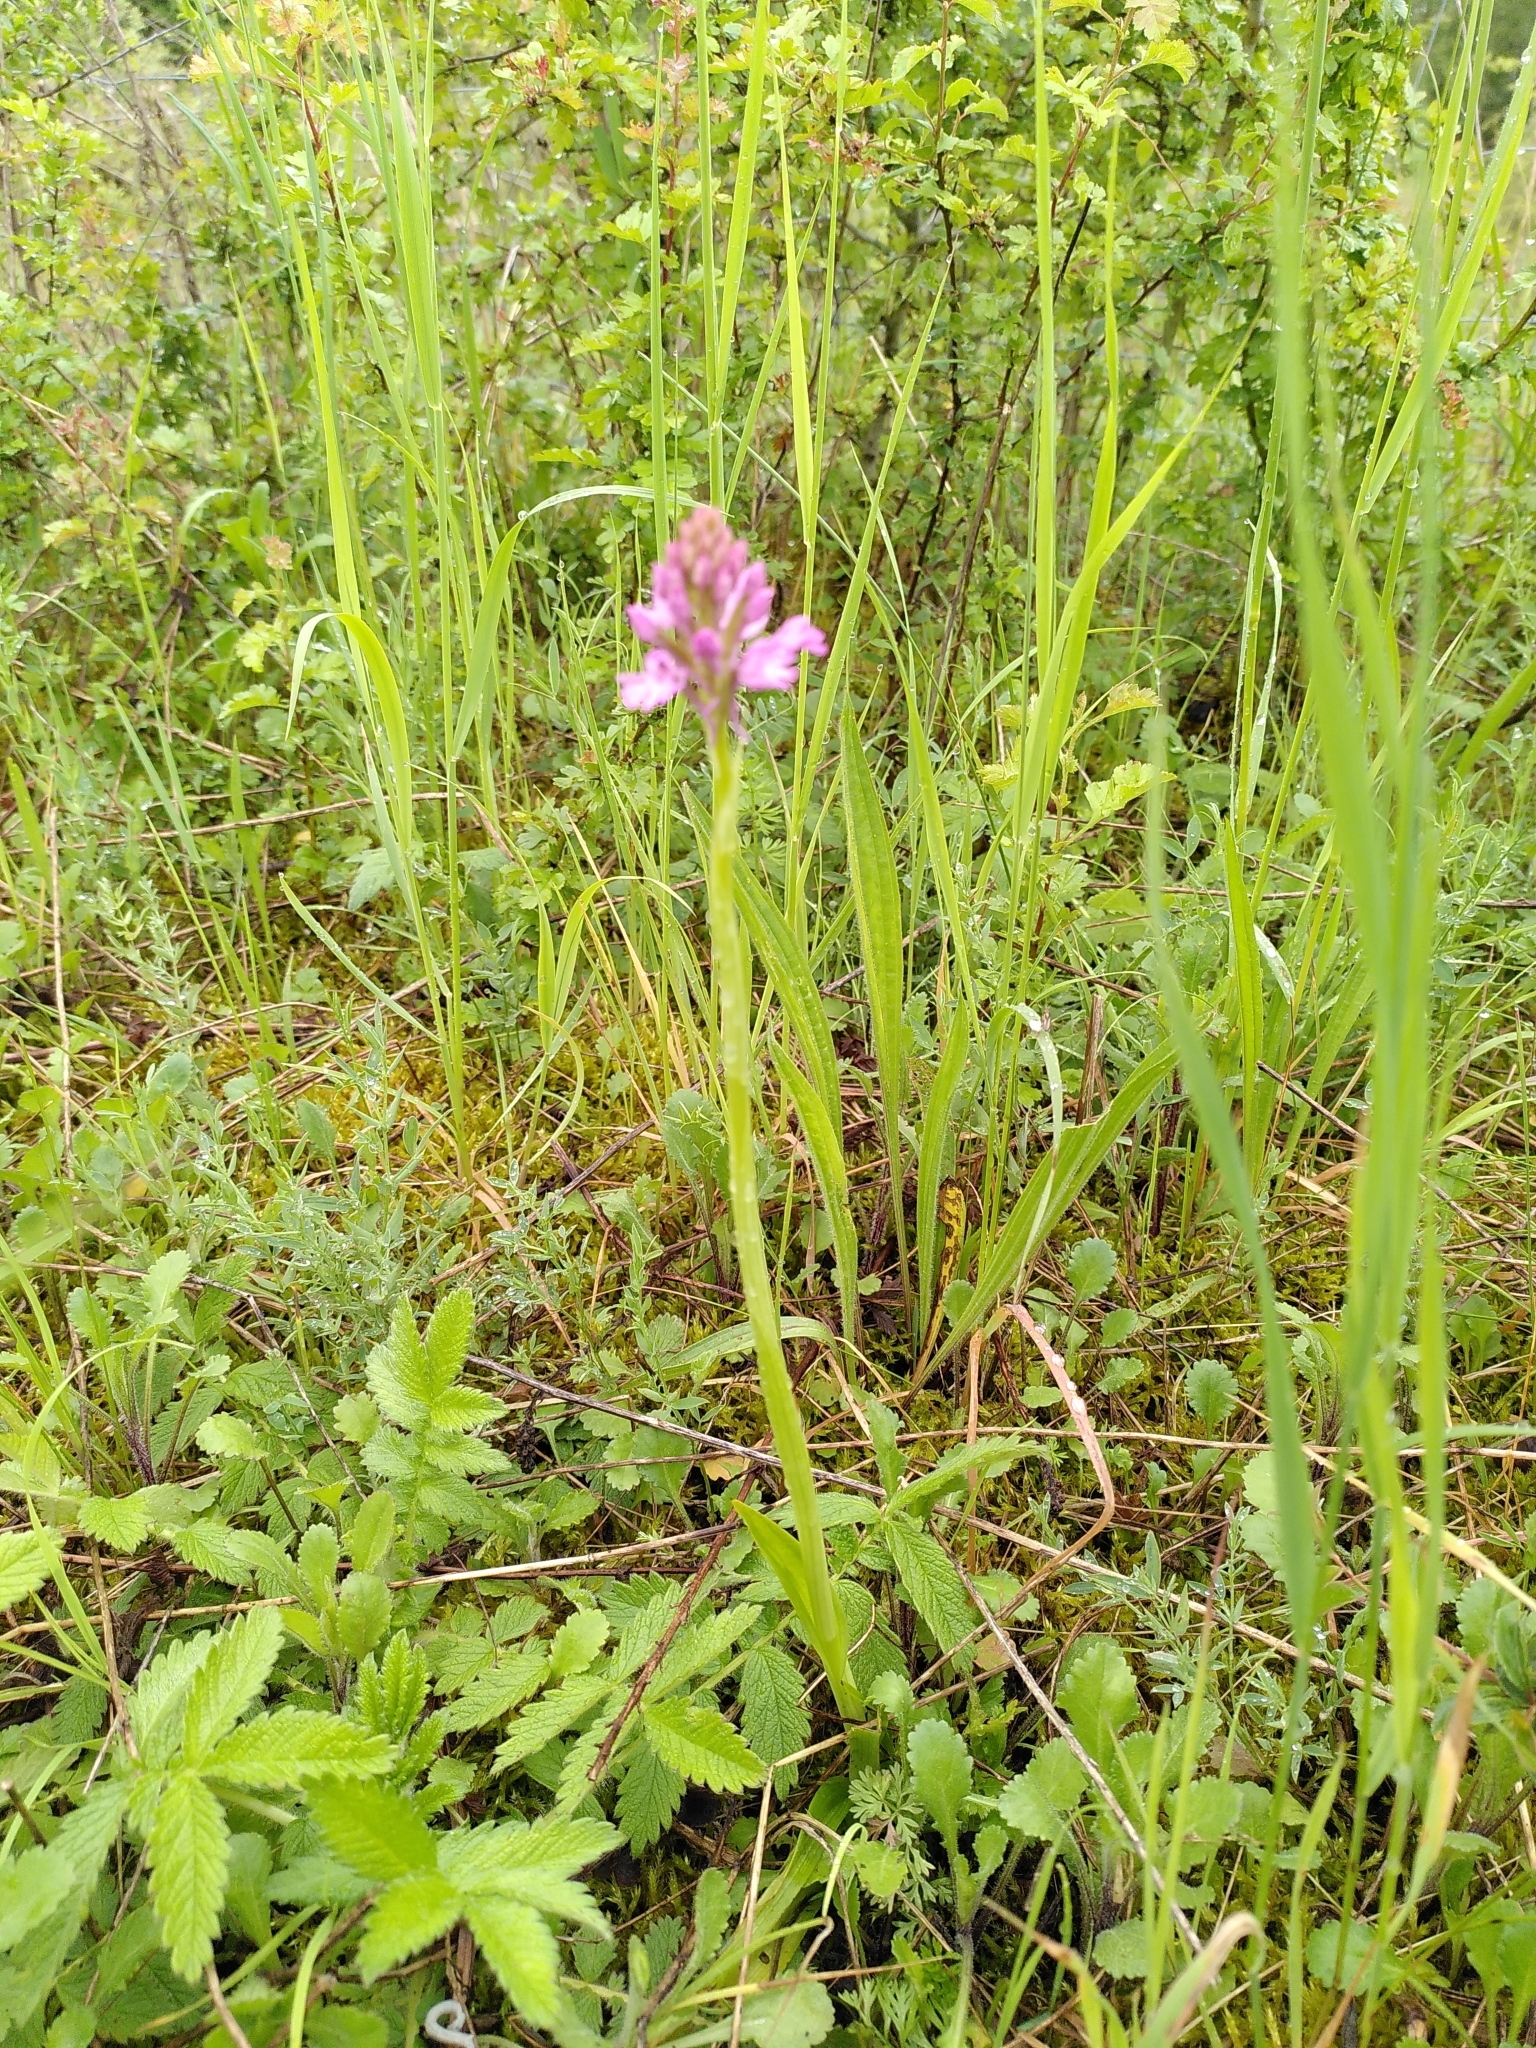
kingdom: Plantae
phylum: Tracheophyta
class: Liliopsida
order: Asparagales
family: Orchidaceae
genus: Anacamptis
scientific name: Anacamptis pyramidalis
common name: Pyramidal orchid
